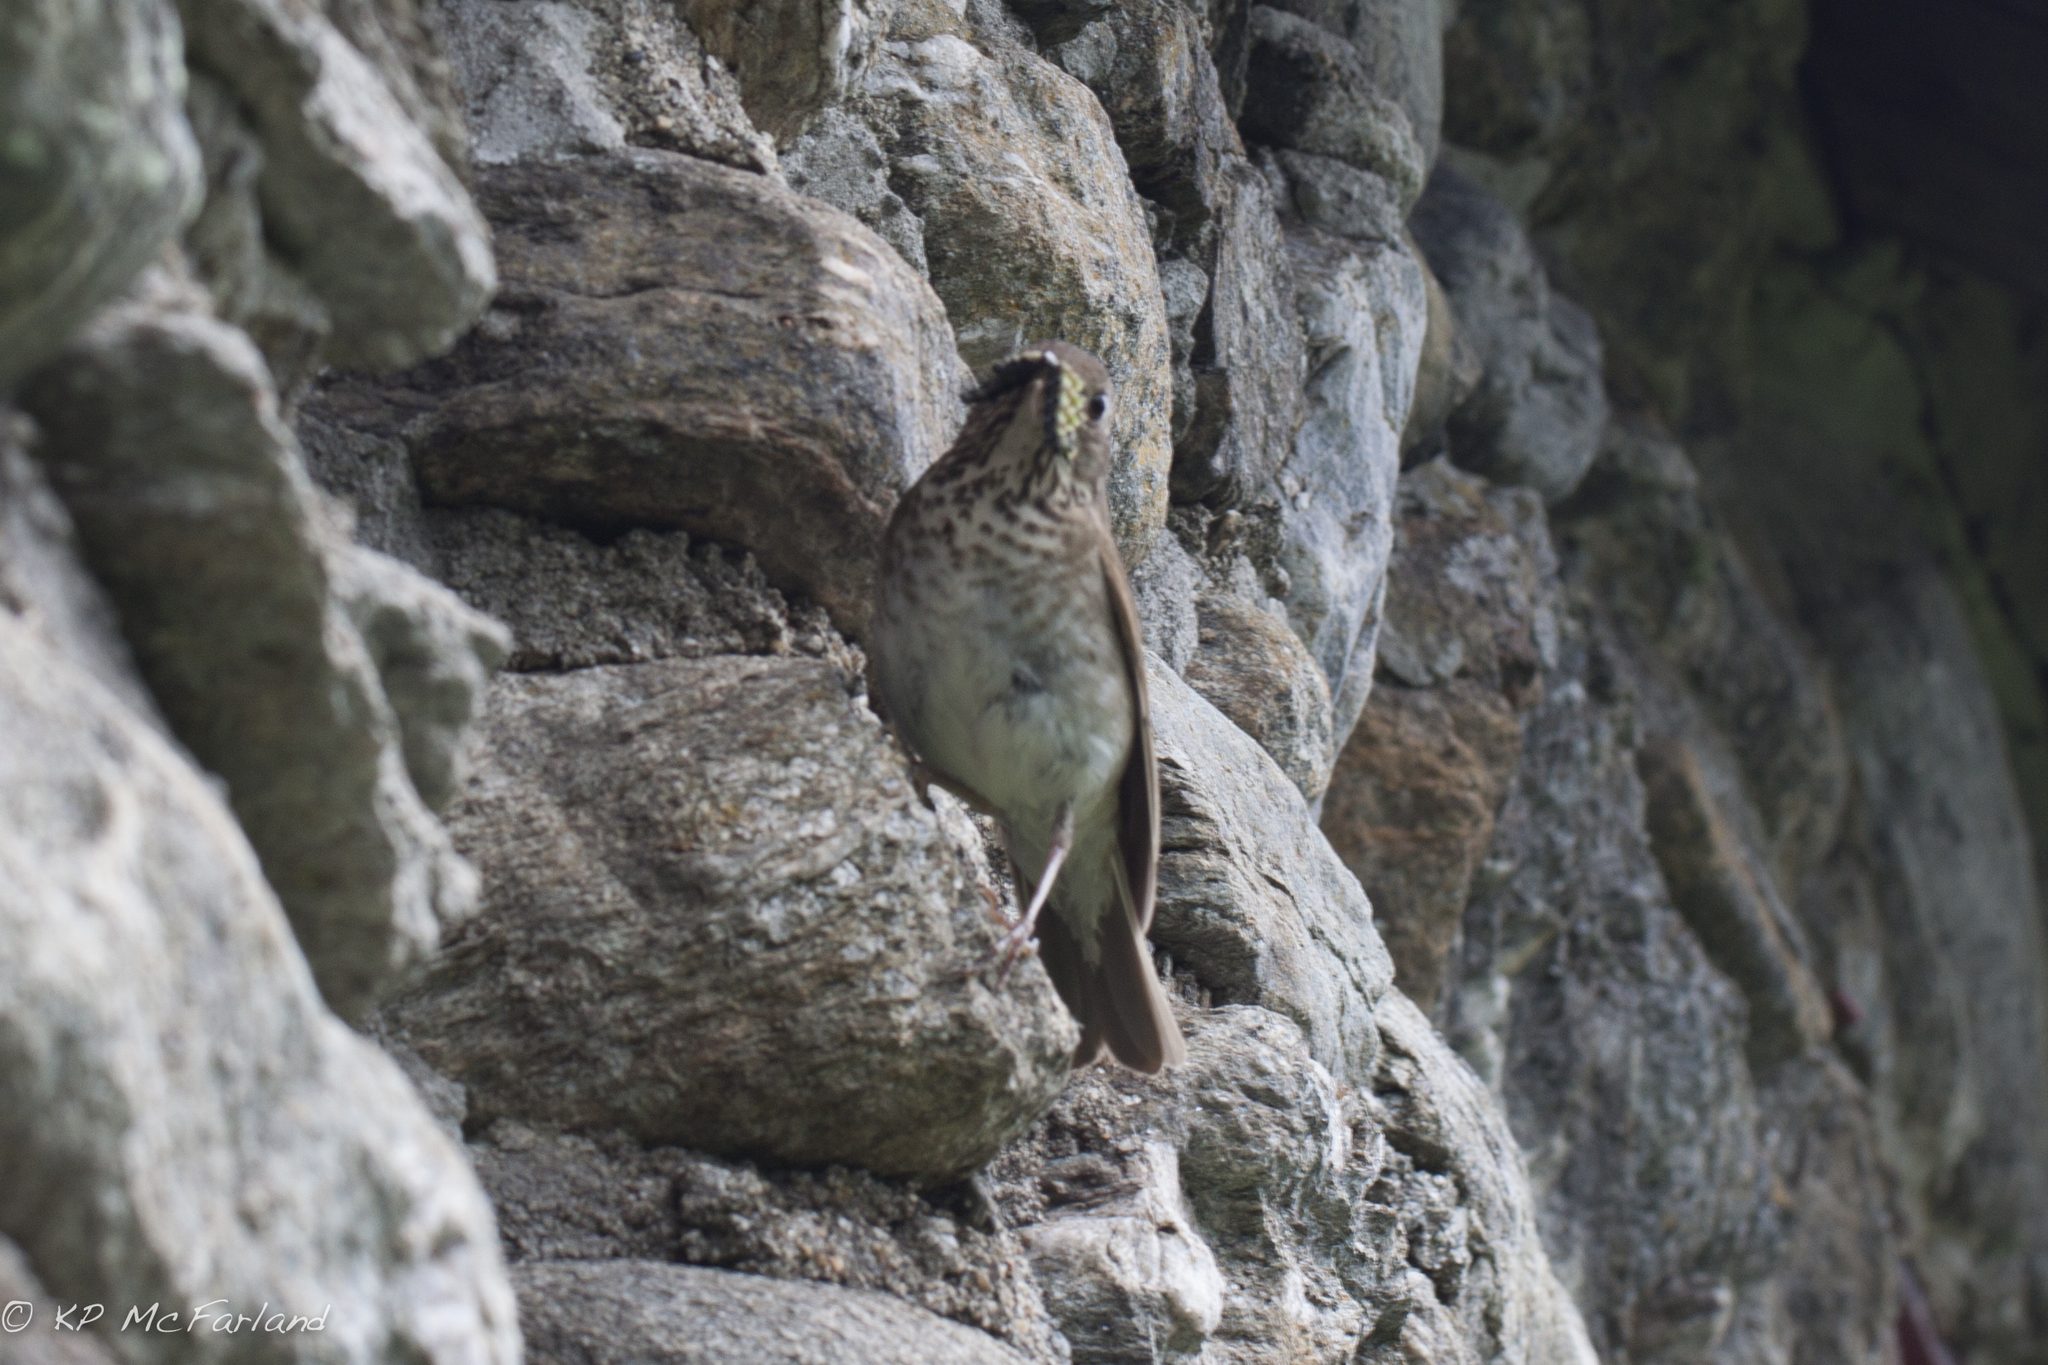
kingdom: Animalia
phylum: Chordata
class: Aves
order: Passeriformes
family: Turdidae
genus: Catharus
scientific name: Catharus bicknelli
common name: Bicknell's thrush
